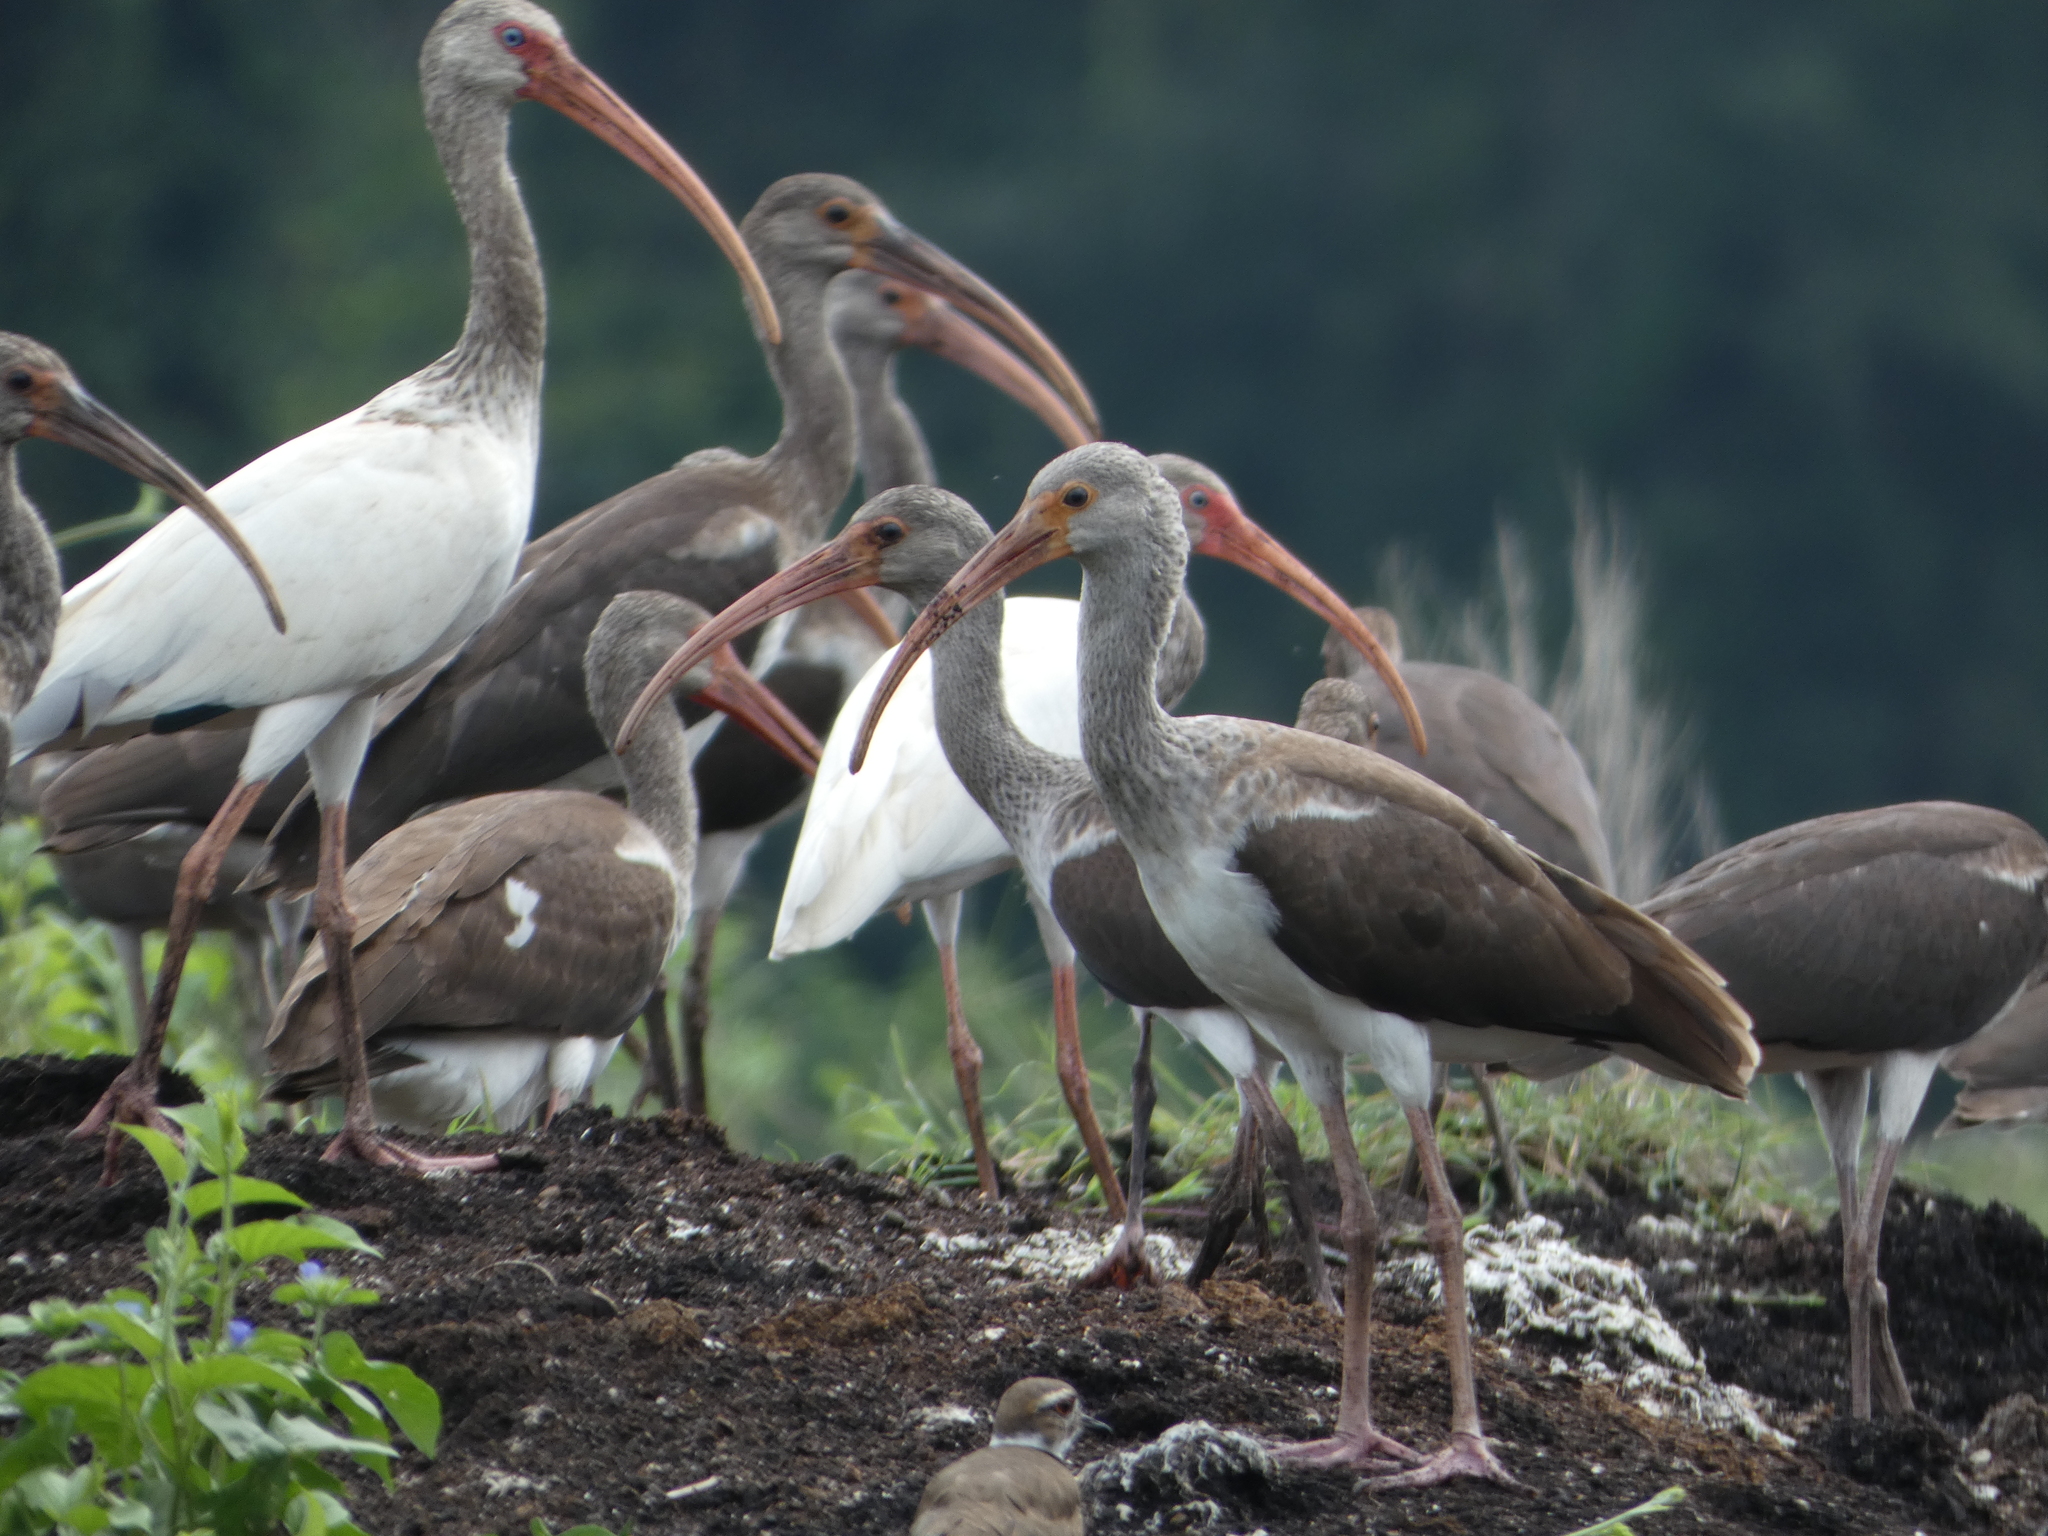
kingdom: Animalia
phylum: Chordata
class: Aves
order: Pelecaniformes
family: Threskiornithidae
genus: Eudocimus
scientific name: Eudocimus albus
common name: White ibis
